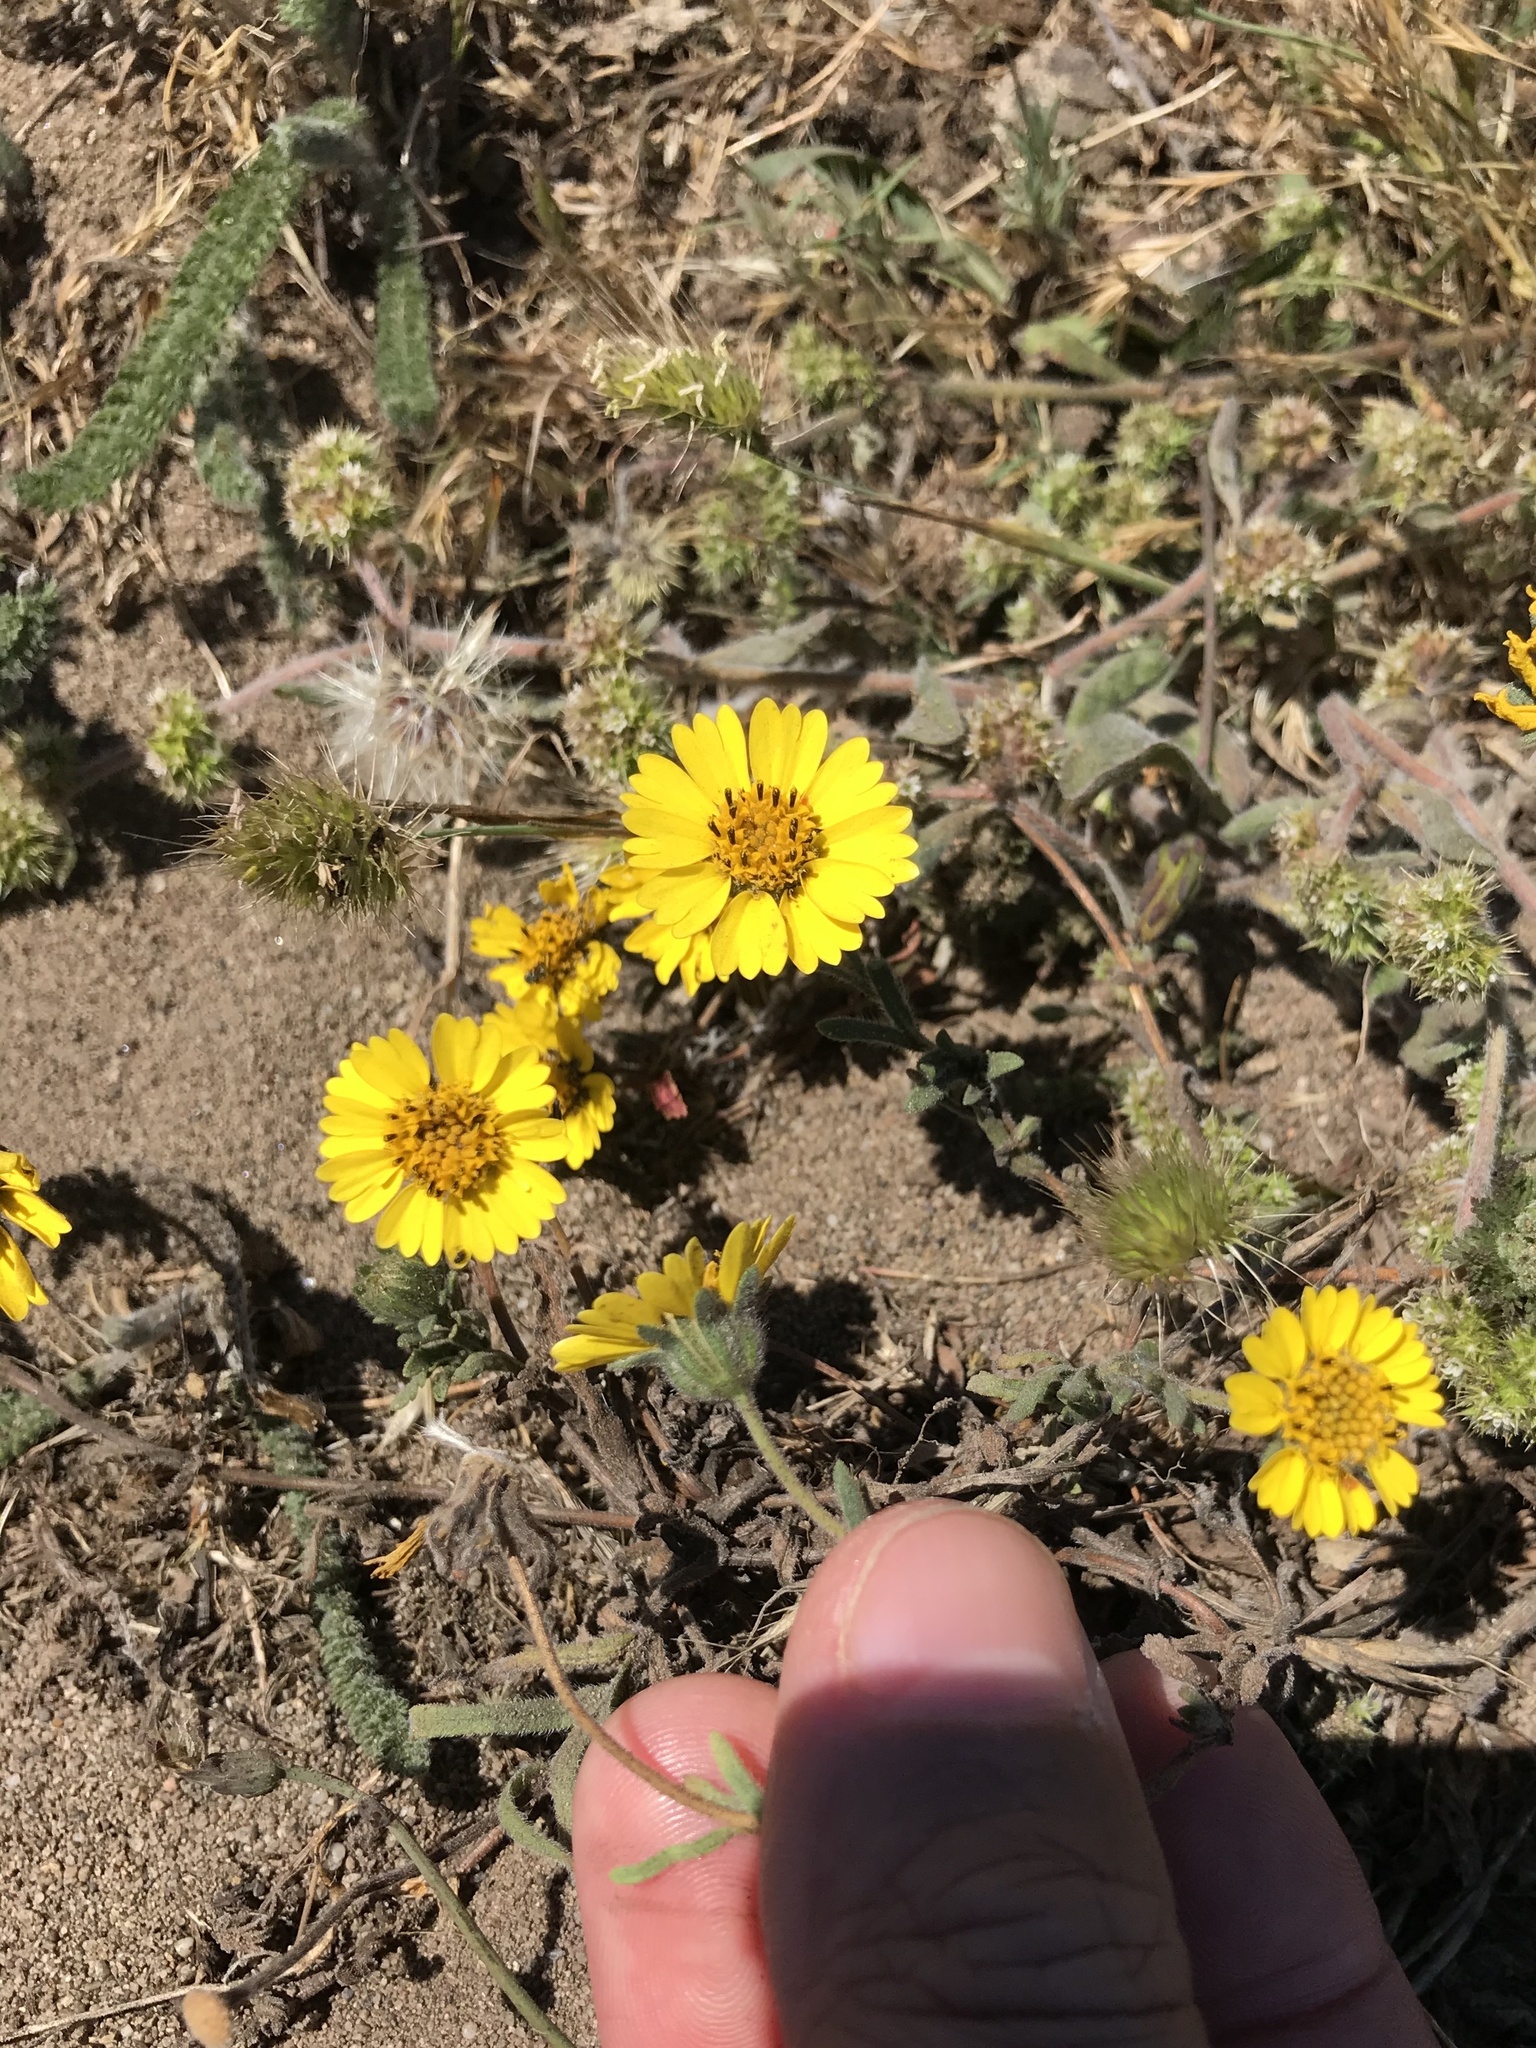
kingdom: Plantae
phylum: Tracheophyta
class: Magnoliopsida
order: Asterales
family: Asteraceae
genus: Layia
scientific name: Layia platyglossa
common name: Tidy-tips
